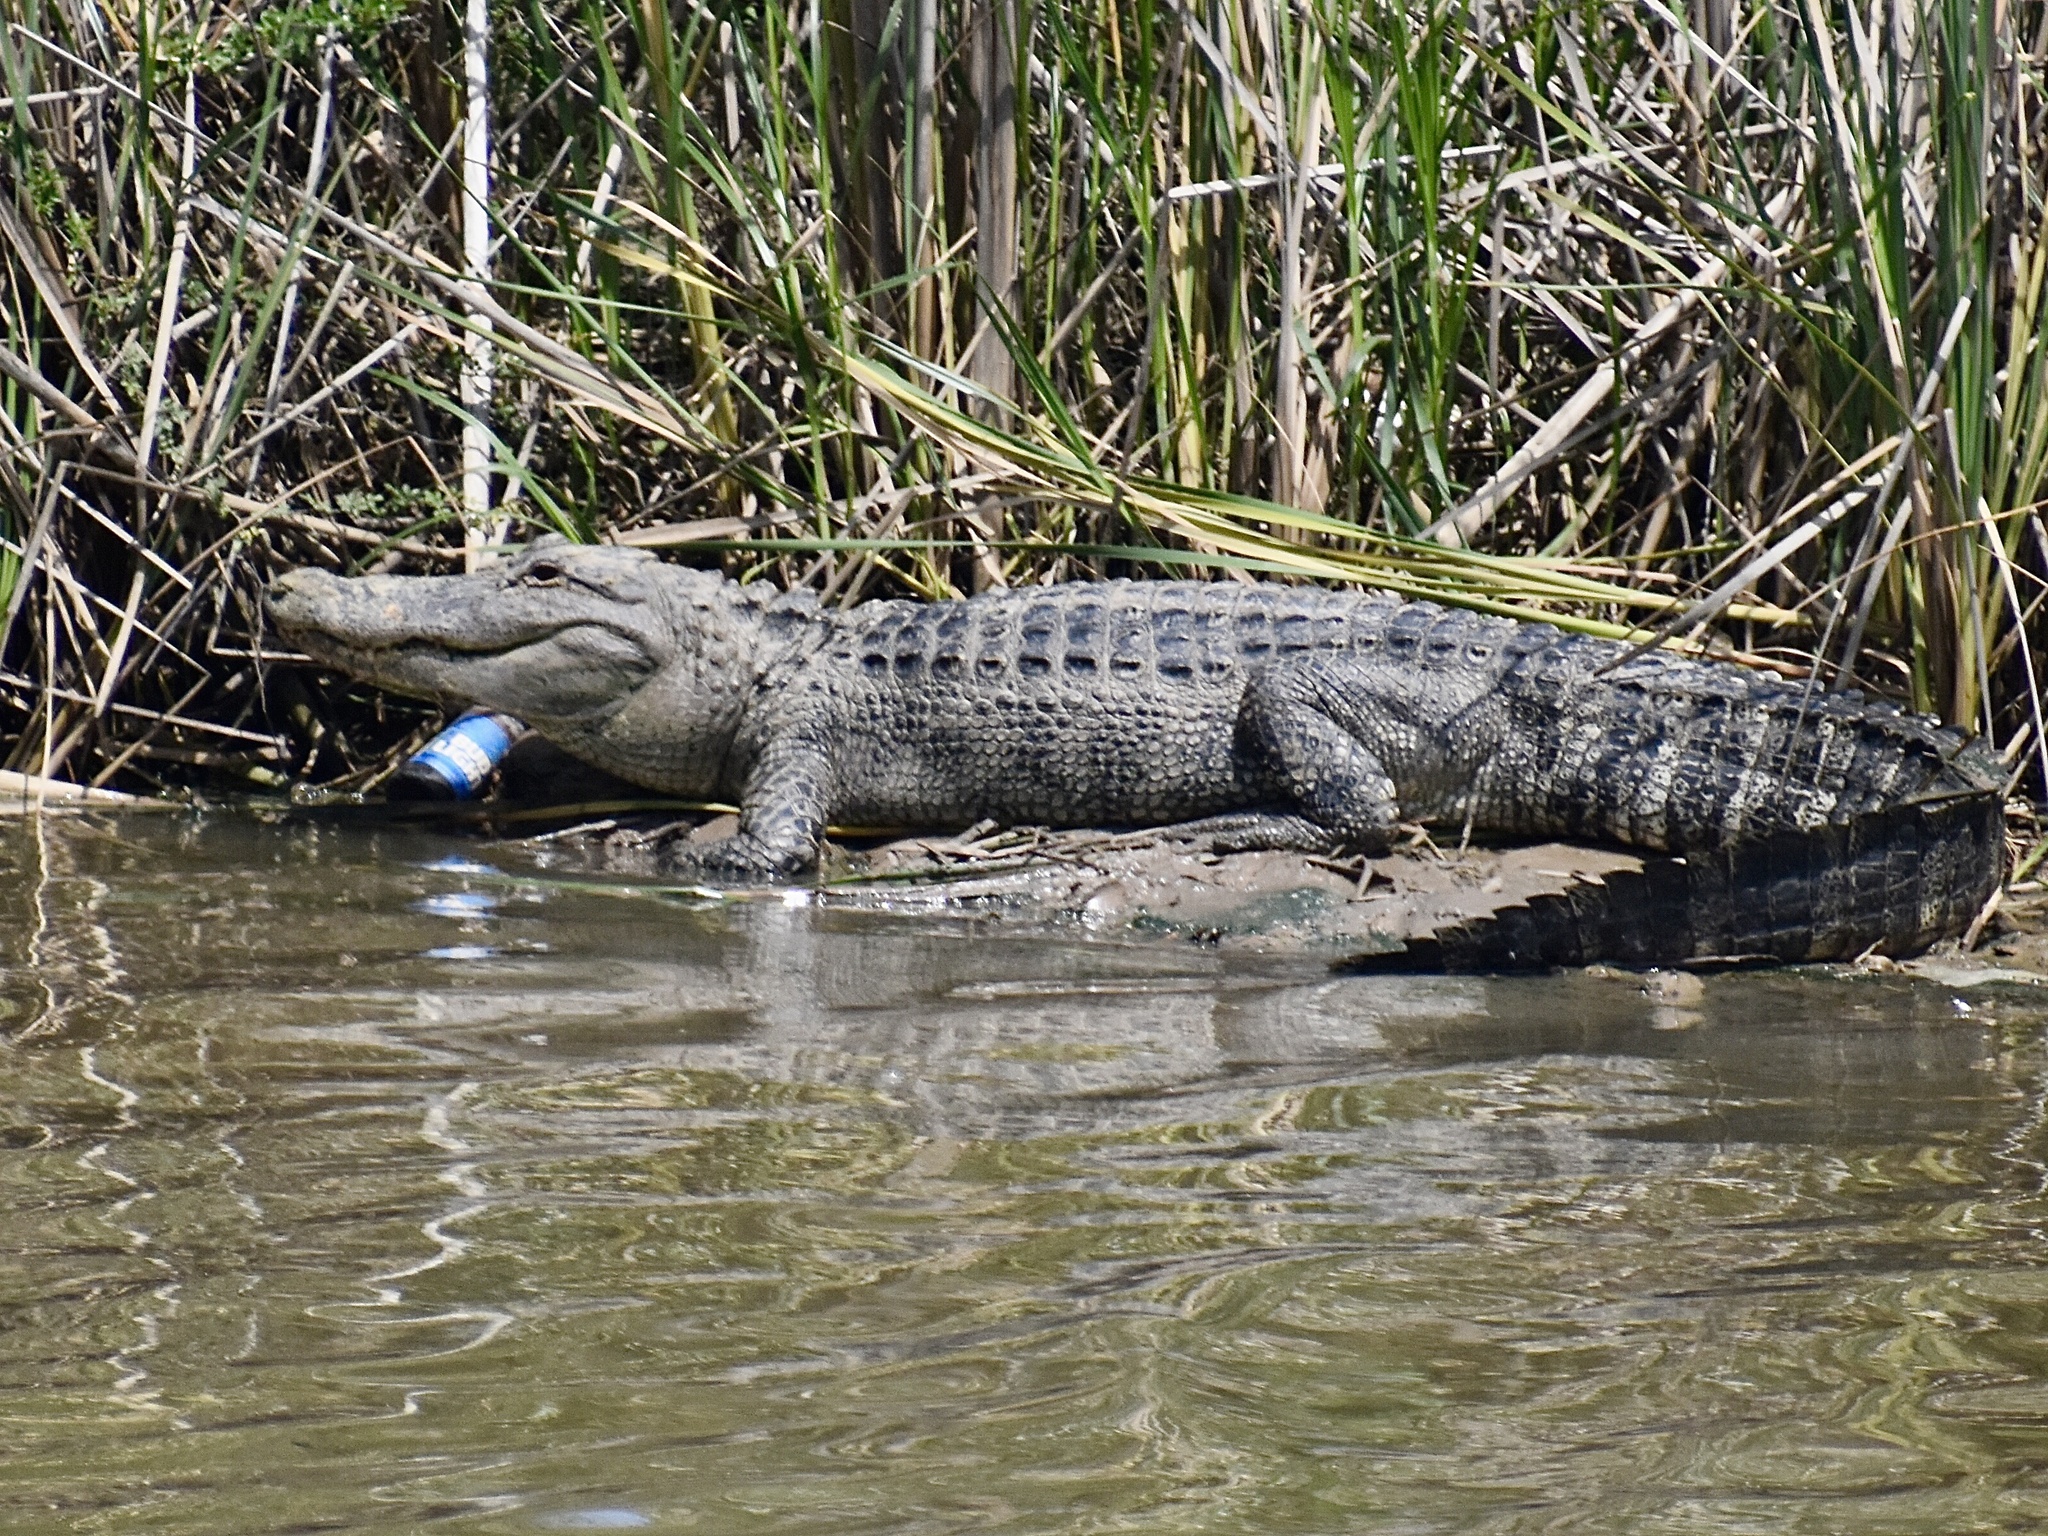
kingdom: Animalia
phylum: Chordata
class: Crocodylia
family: Alligatoridae
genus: Alligator
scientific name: Alligator mississippiensis
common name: American alligator
